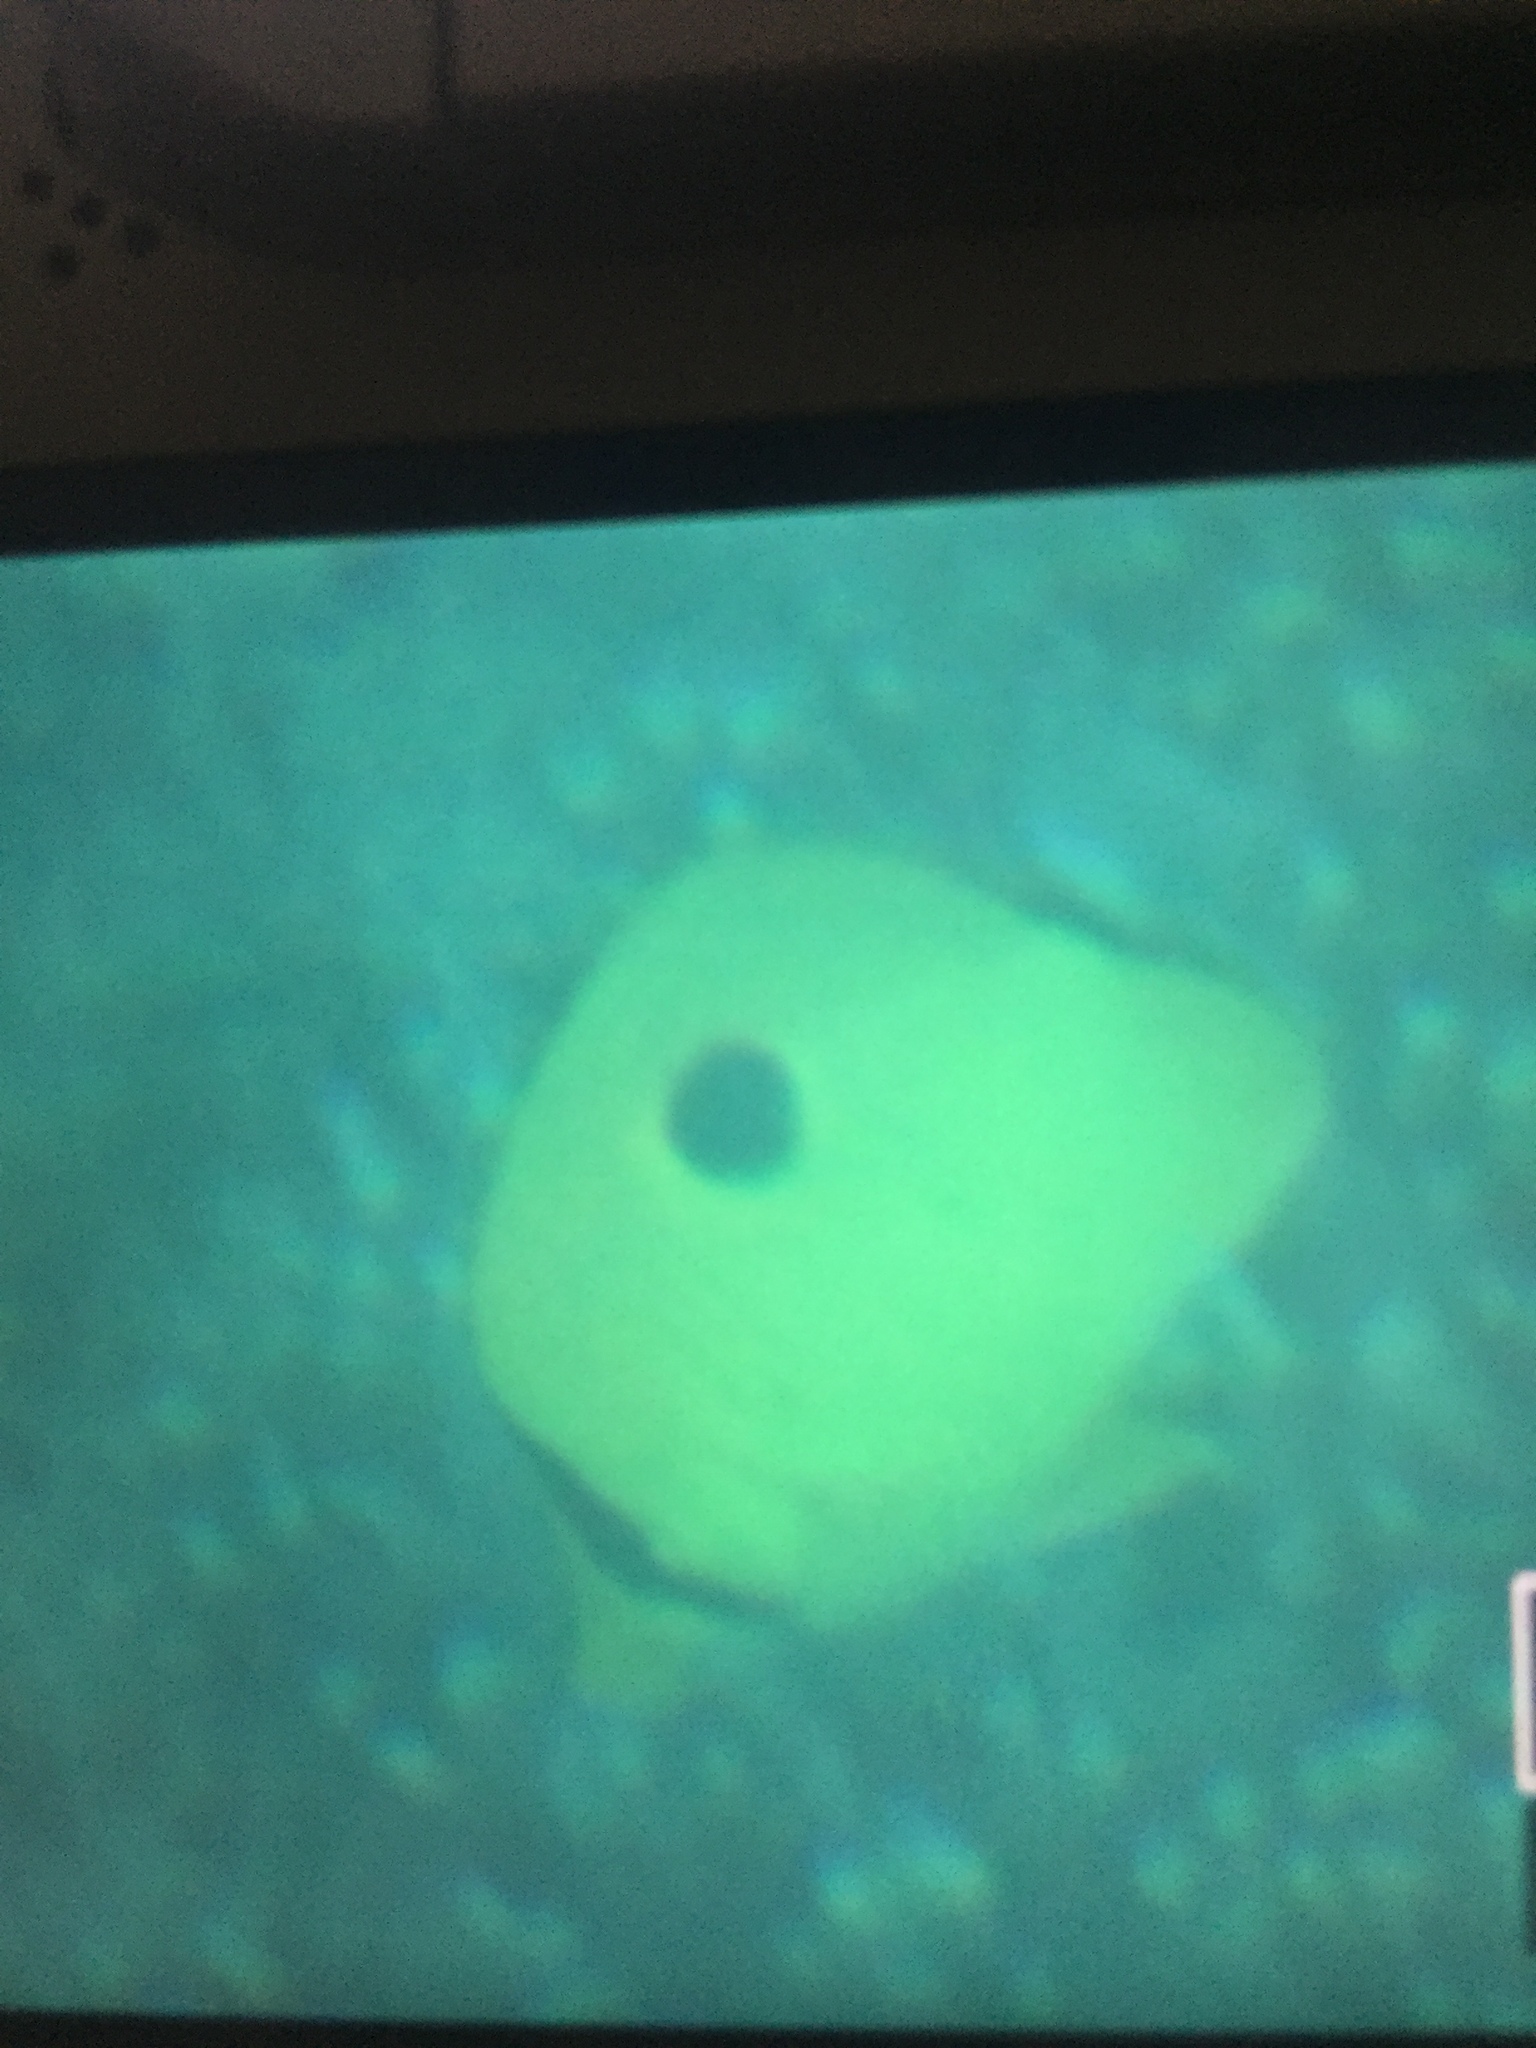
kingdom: Animalia
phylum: Chordata
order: Perciformes
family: Chaetodontidae
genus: Chaetodon
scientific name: Chaetodon interruptus
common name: Yellow teardrop butterflyfish
